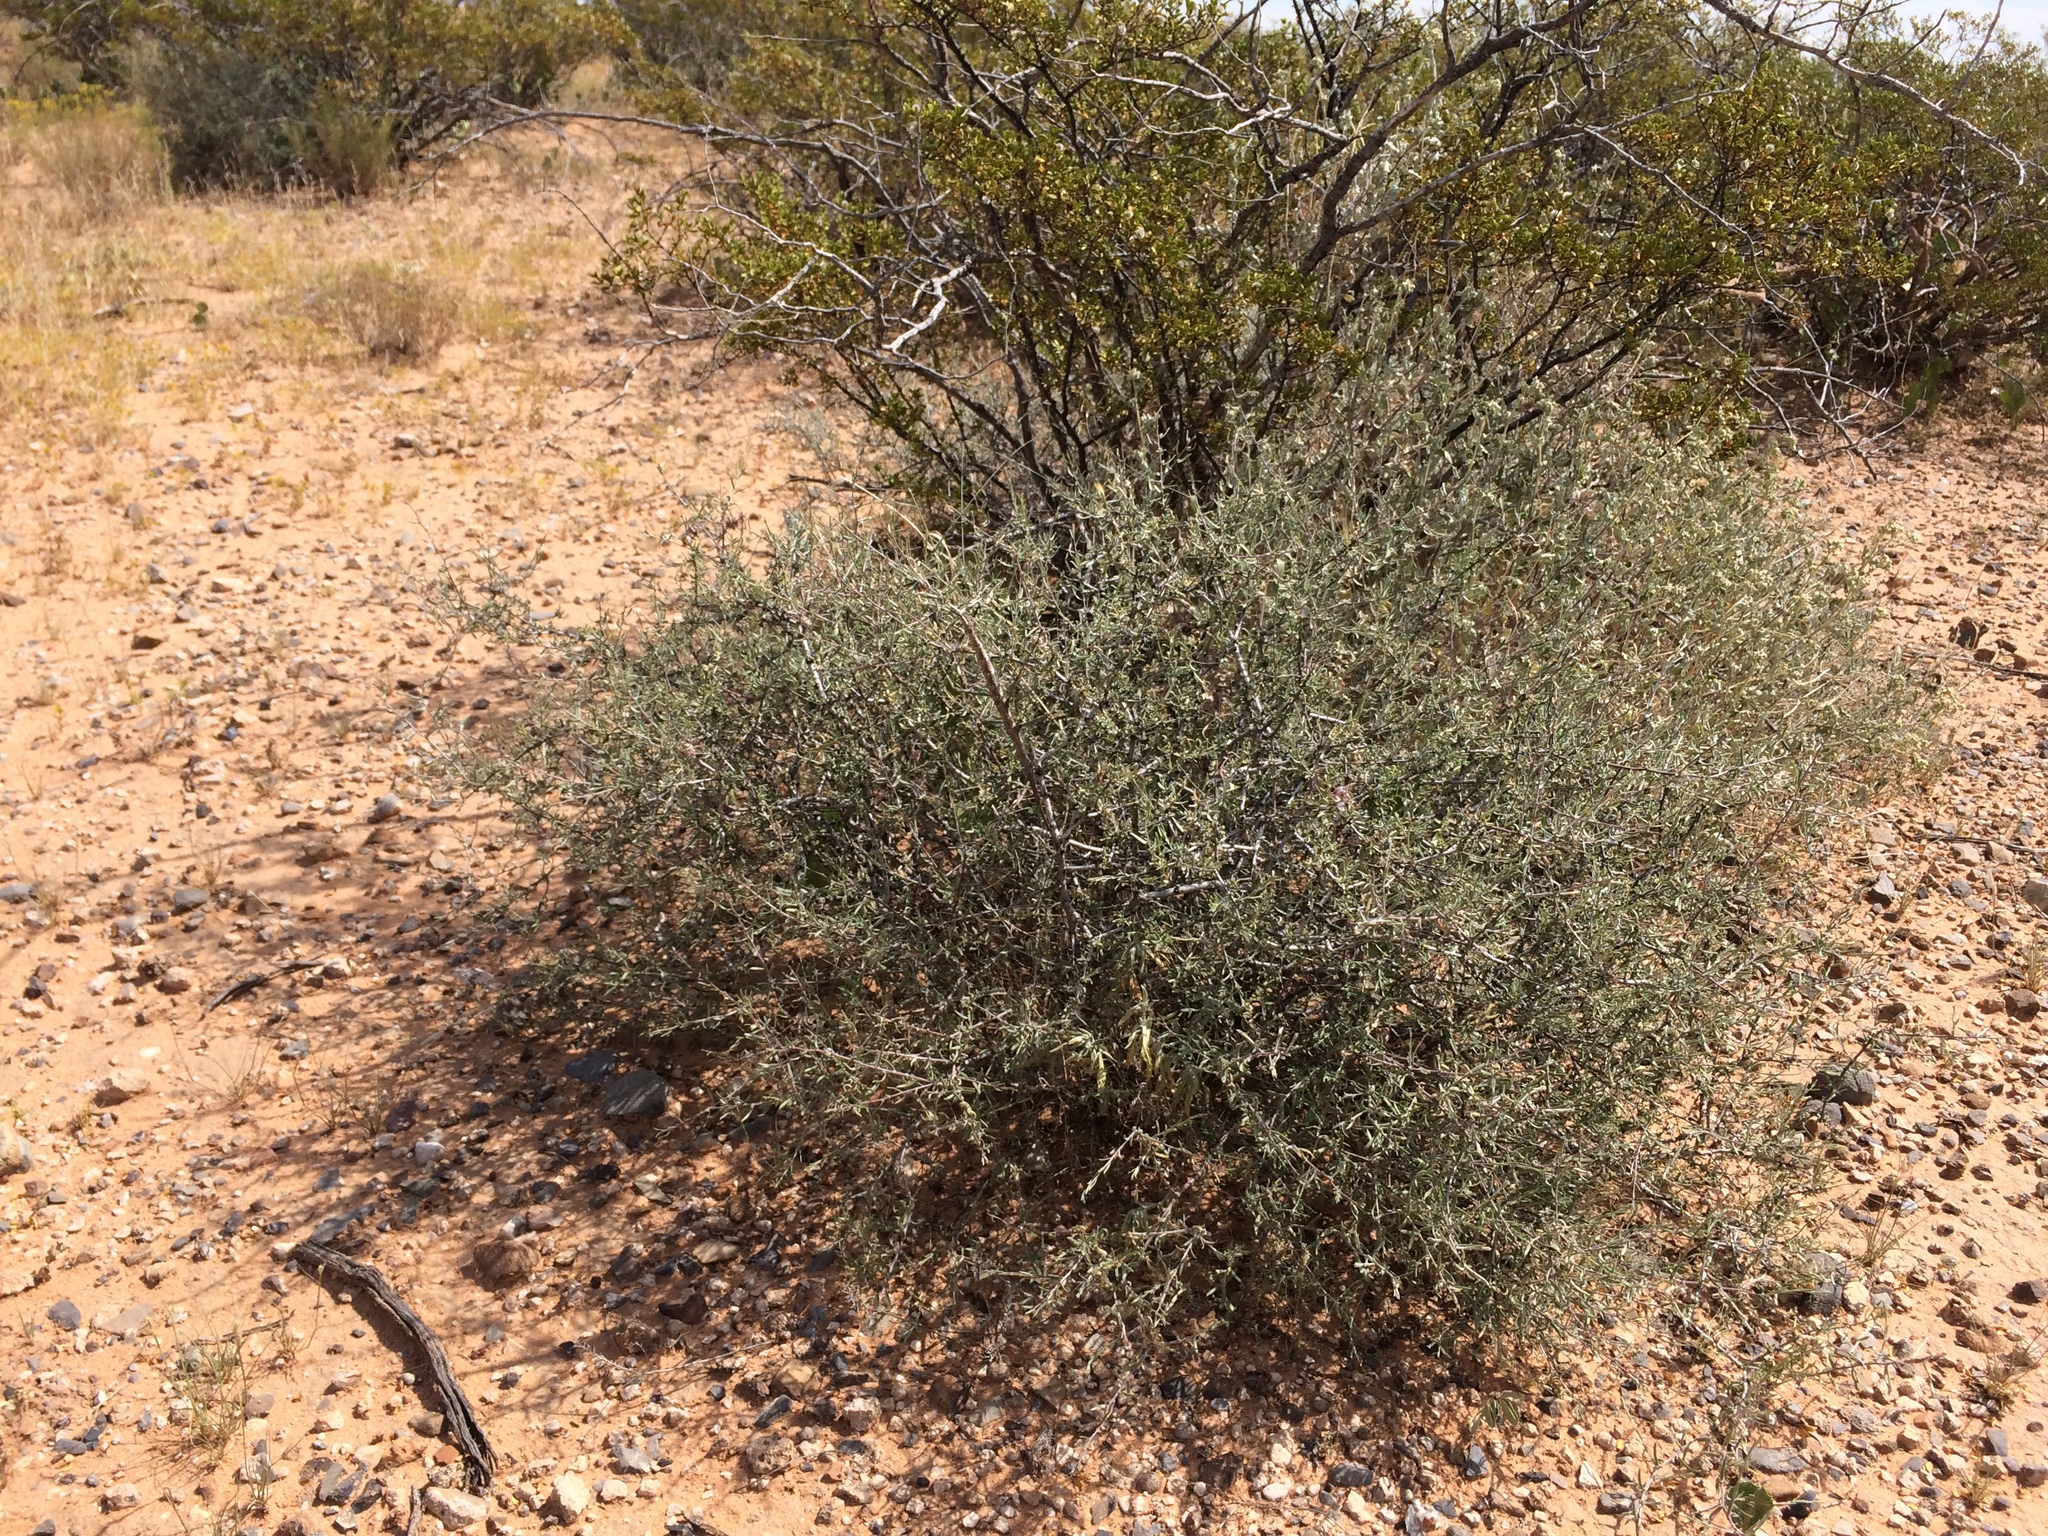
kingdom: Plantae
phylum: Tracheophyta
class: Magnoliopsida
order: Zygophyllales
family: Krameriaceae
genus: Krameria
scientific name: Krameria erecta
